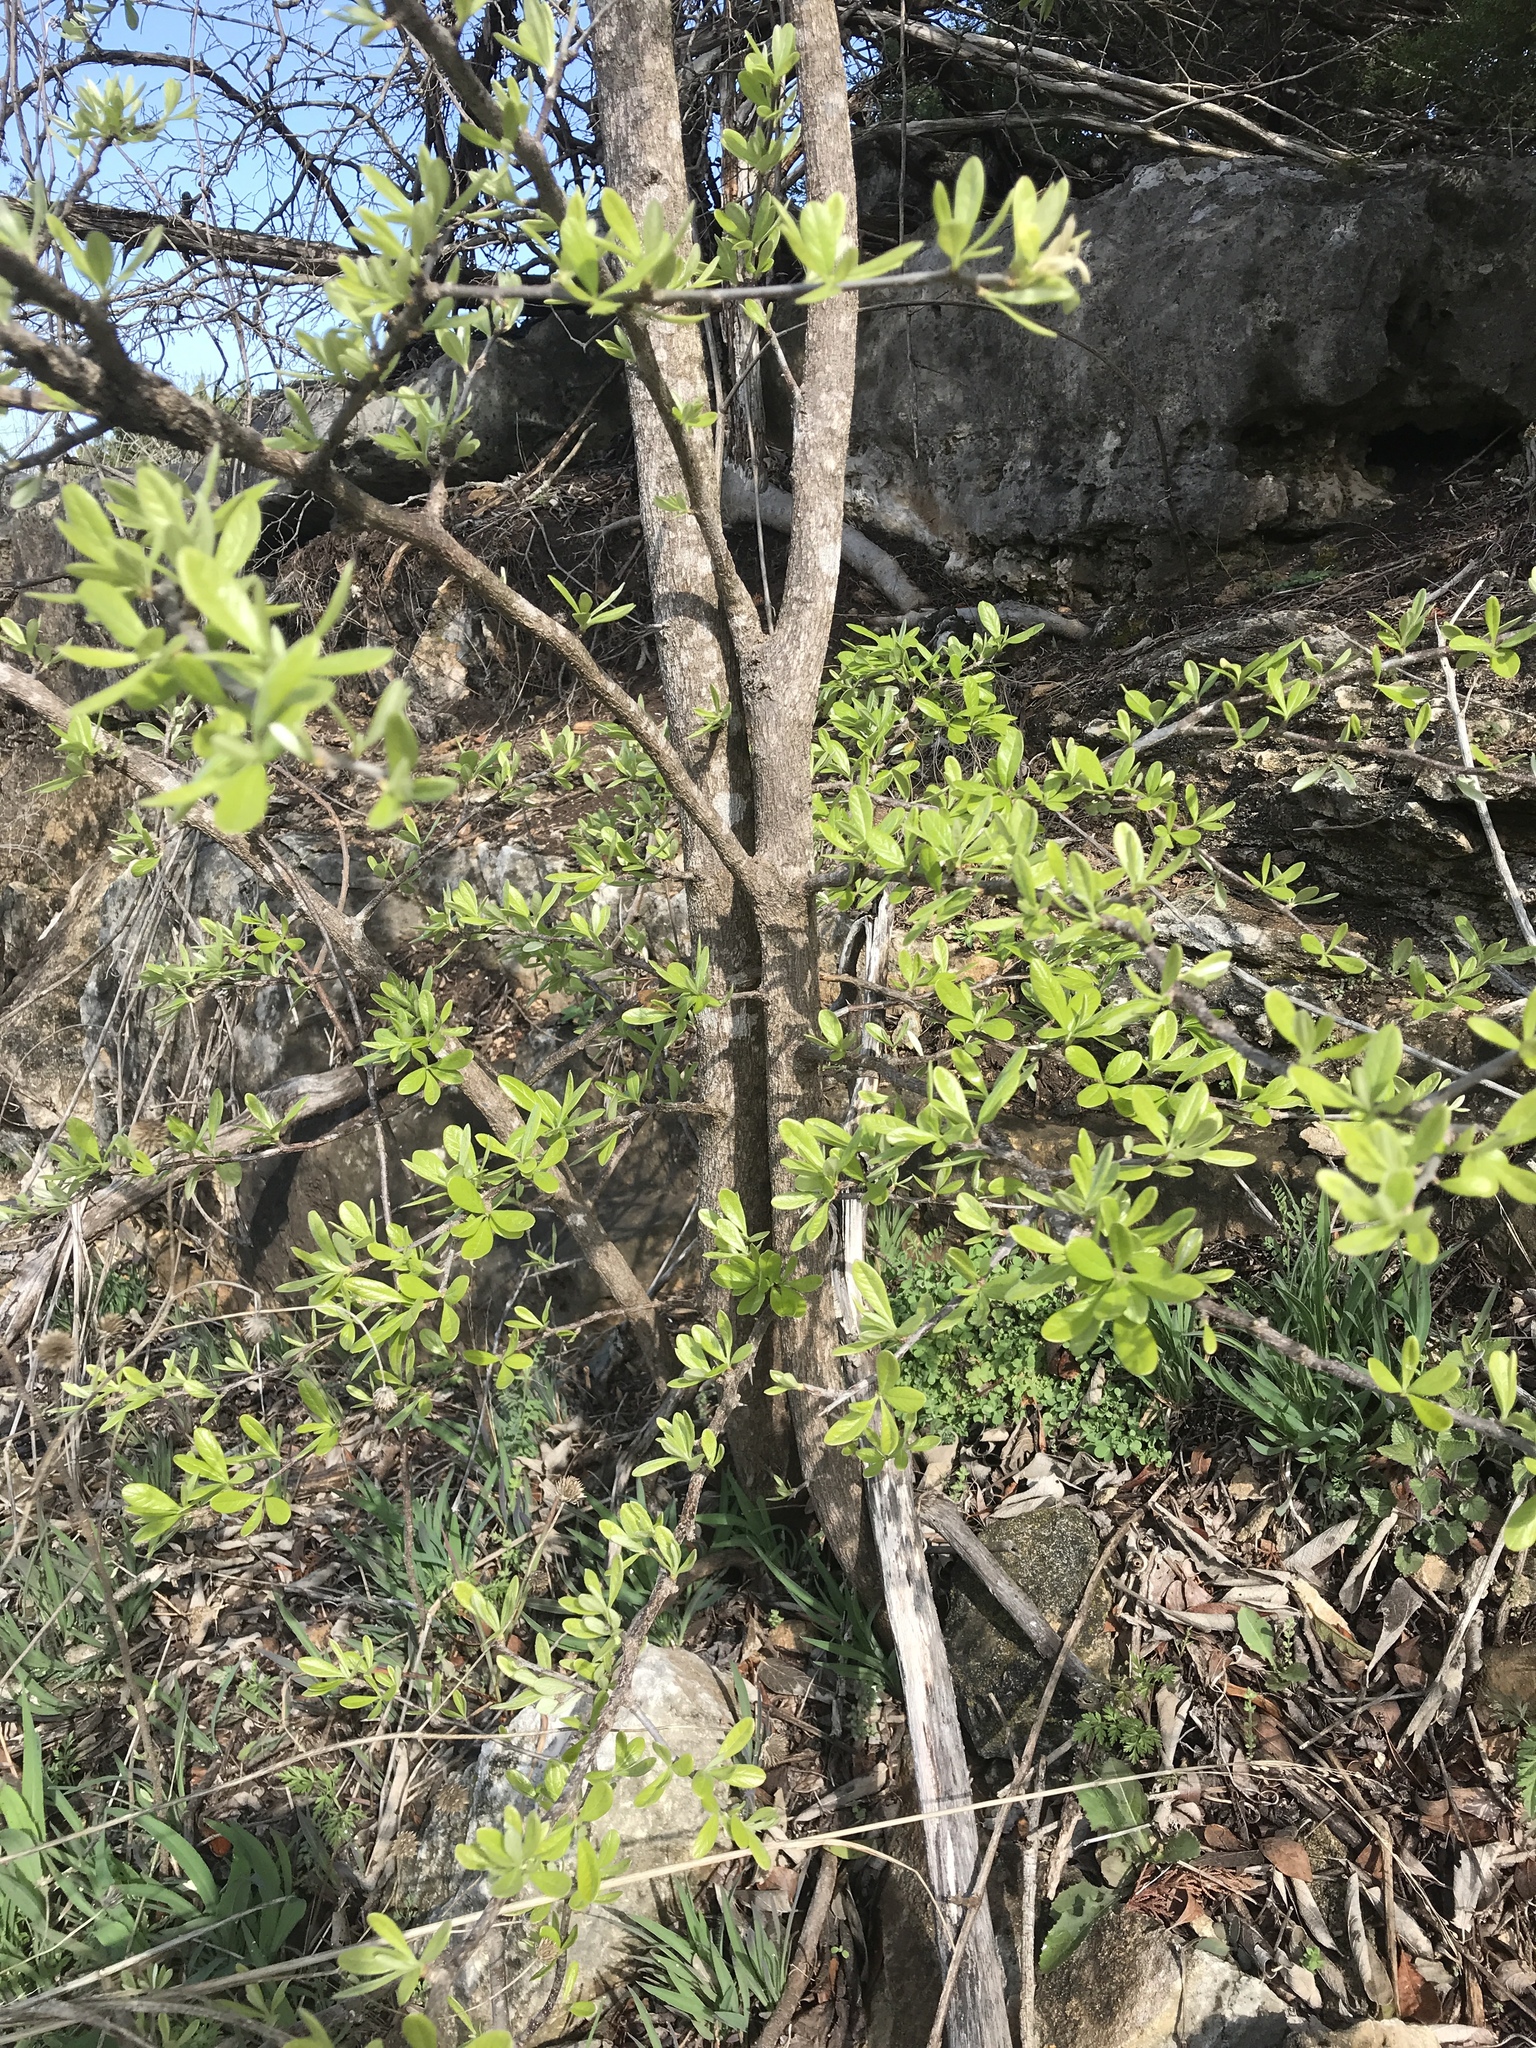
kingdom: Plantae
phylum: Tracheophyta
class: Magnoliopsida
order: Ericales
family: Sapotaceae
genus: Sideroxylon
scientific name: Sideroxylon lanuginosum
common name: Chittamwood
